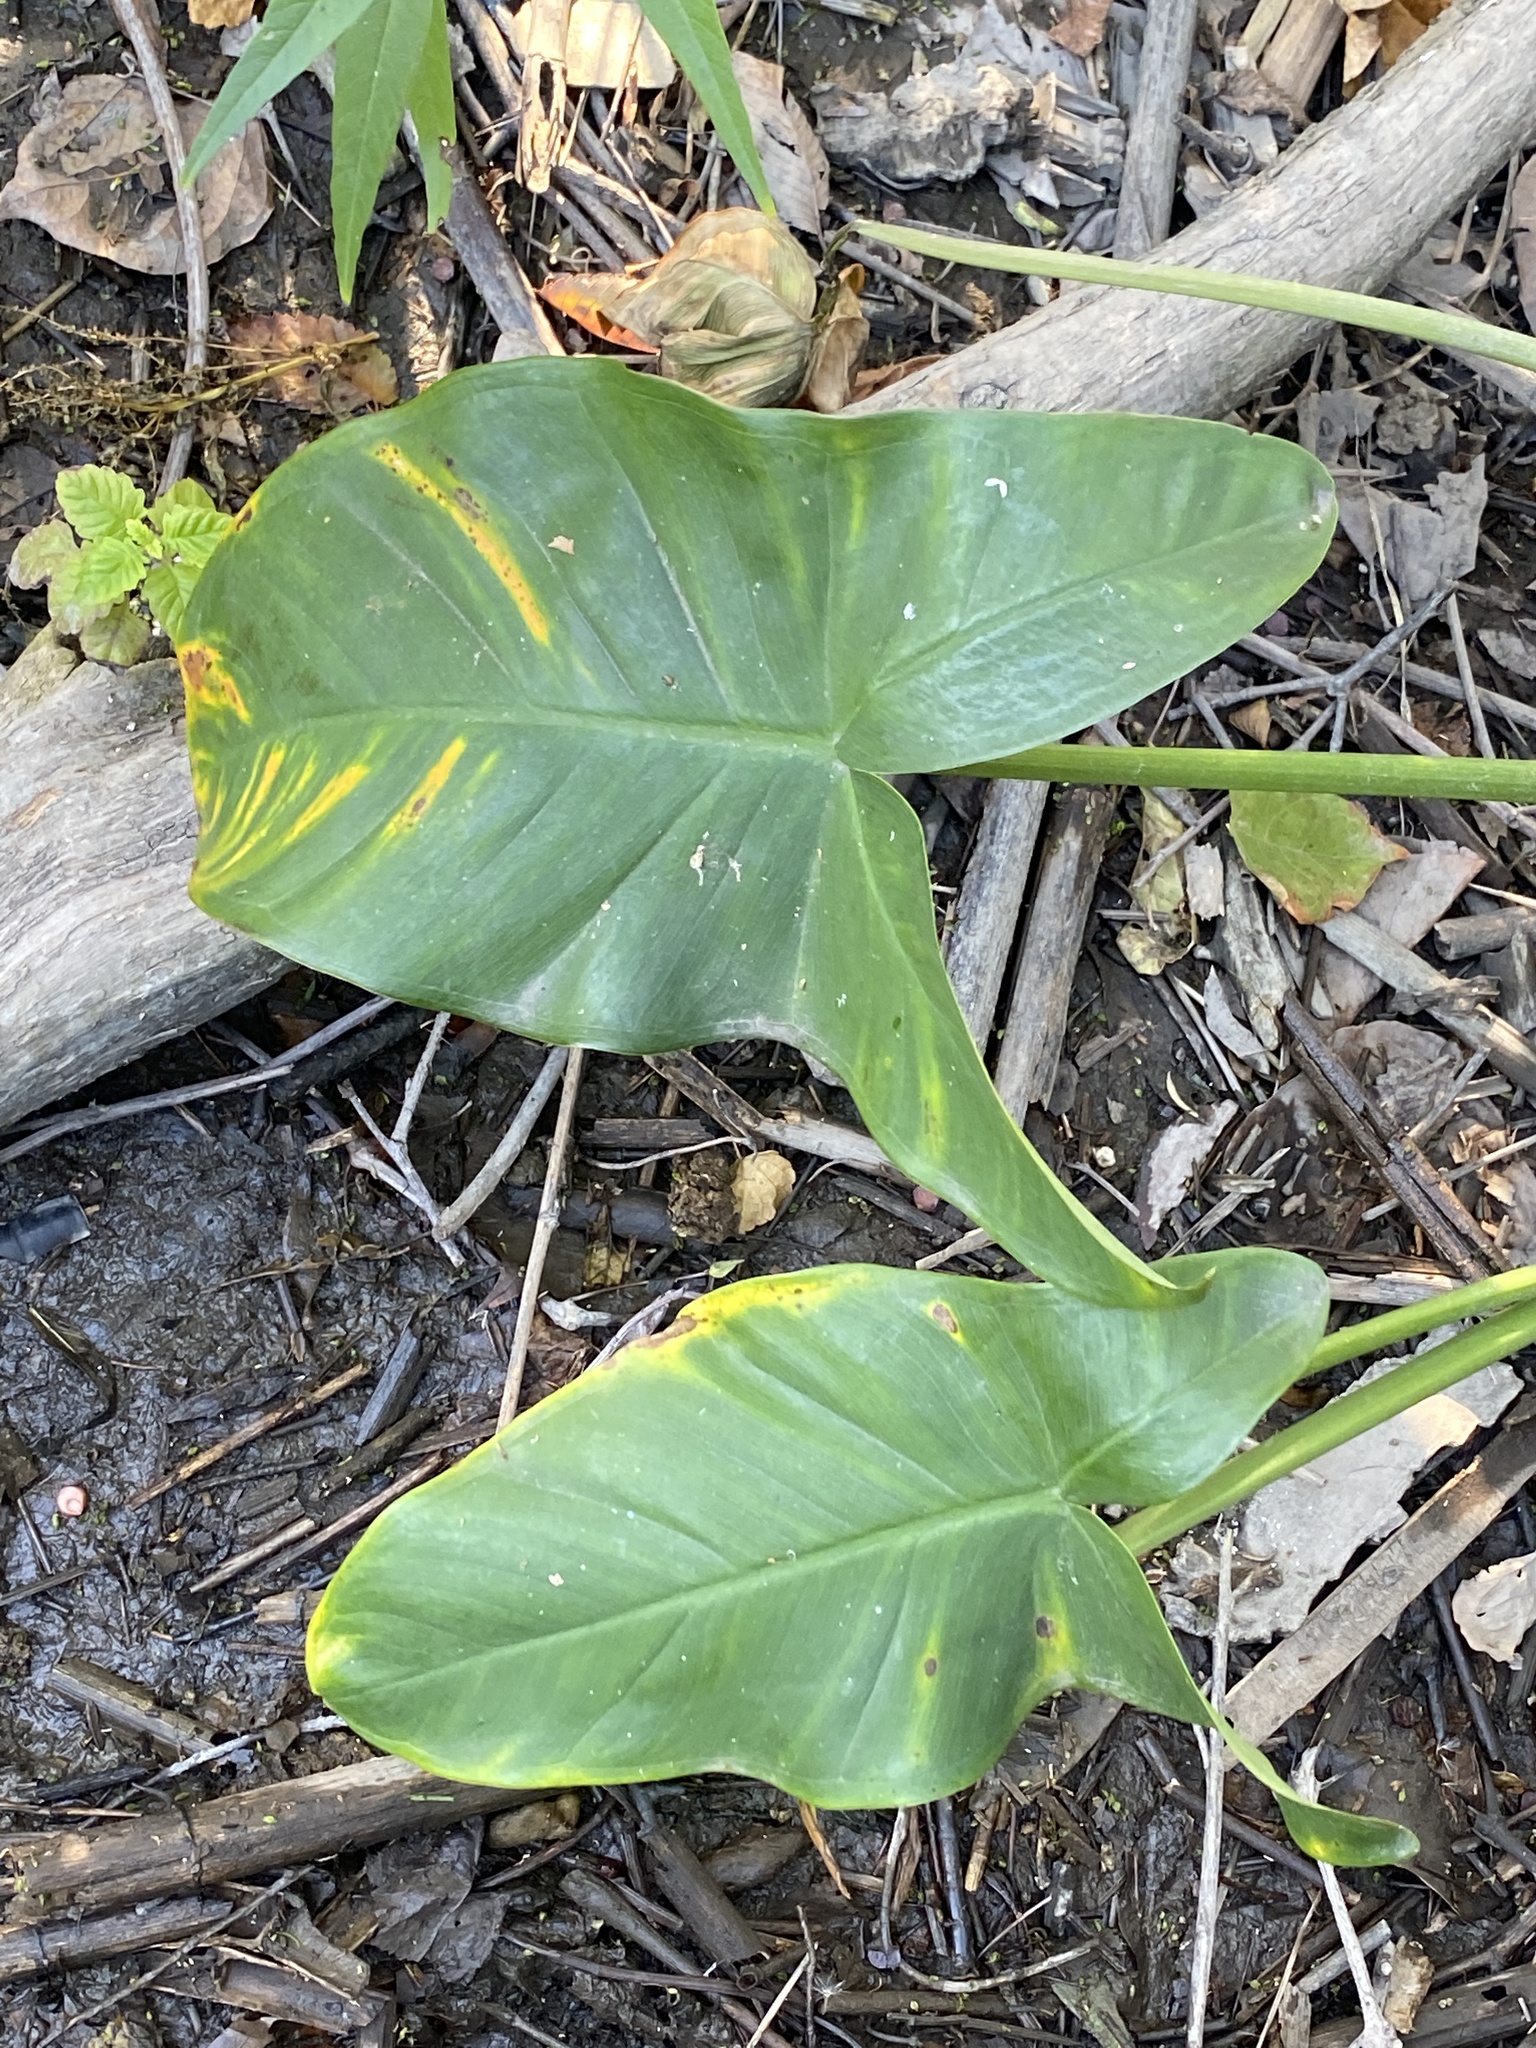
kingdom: Plantae
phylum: Tracheophyta
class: Liliopsida
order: Alismatales
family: Araceae
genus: Peltandra
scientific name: Peltandra virginica
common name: Arrow arum
